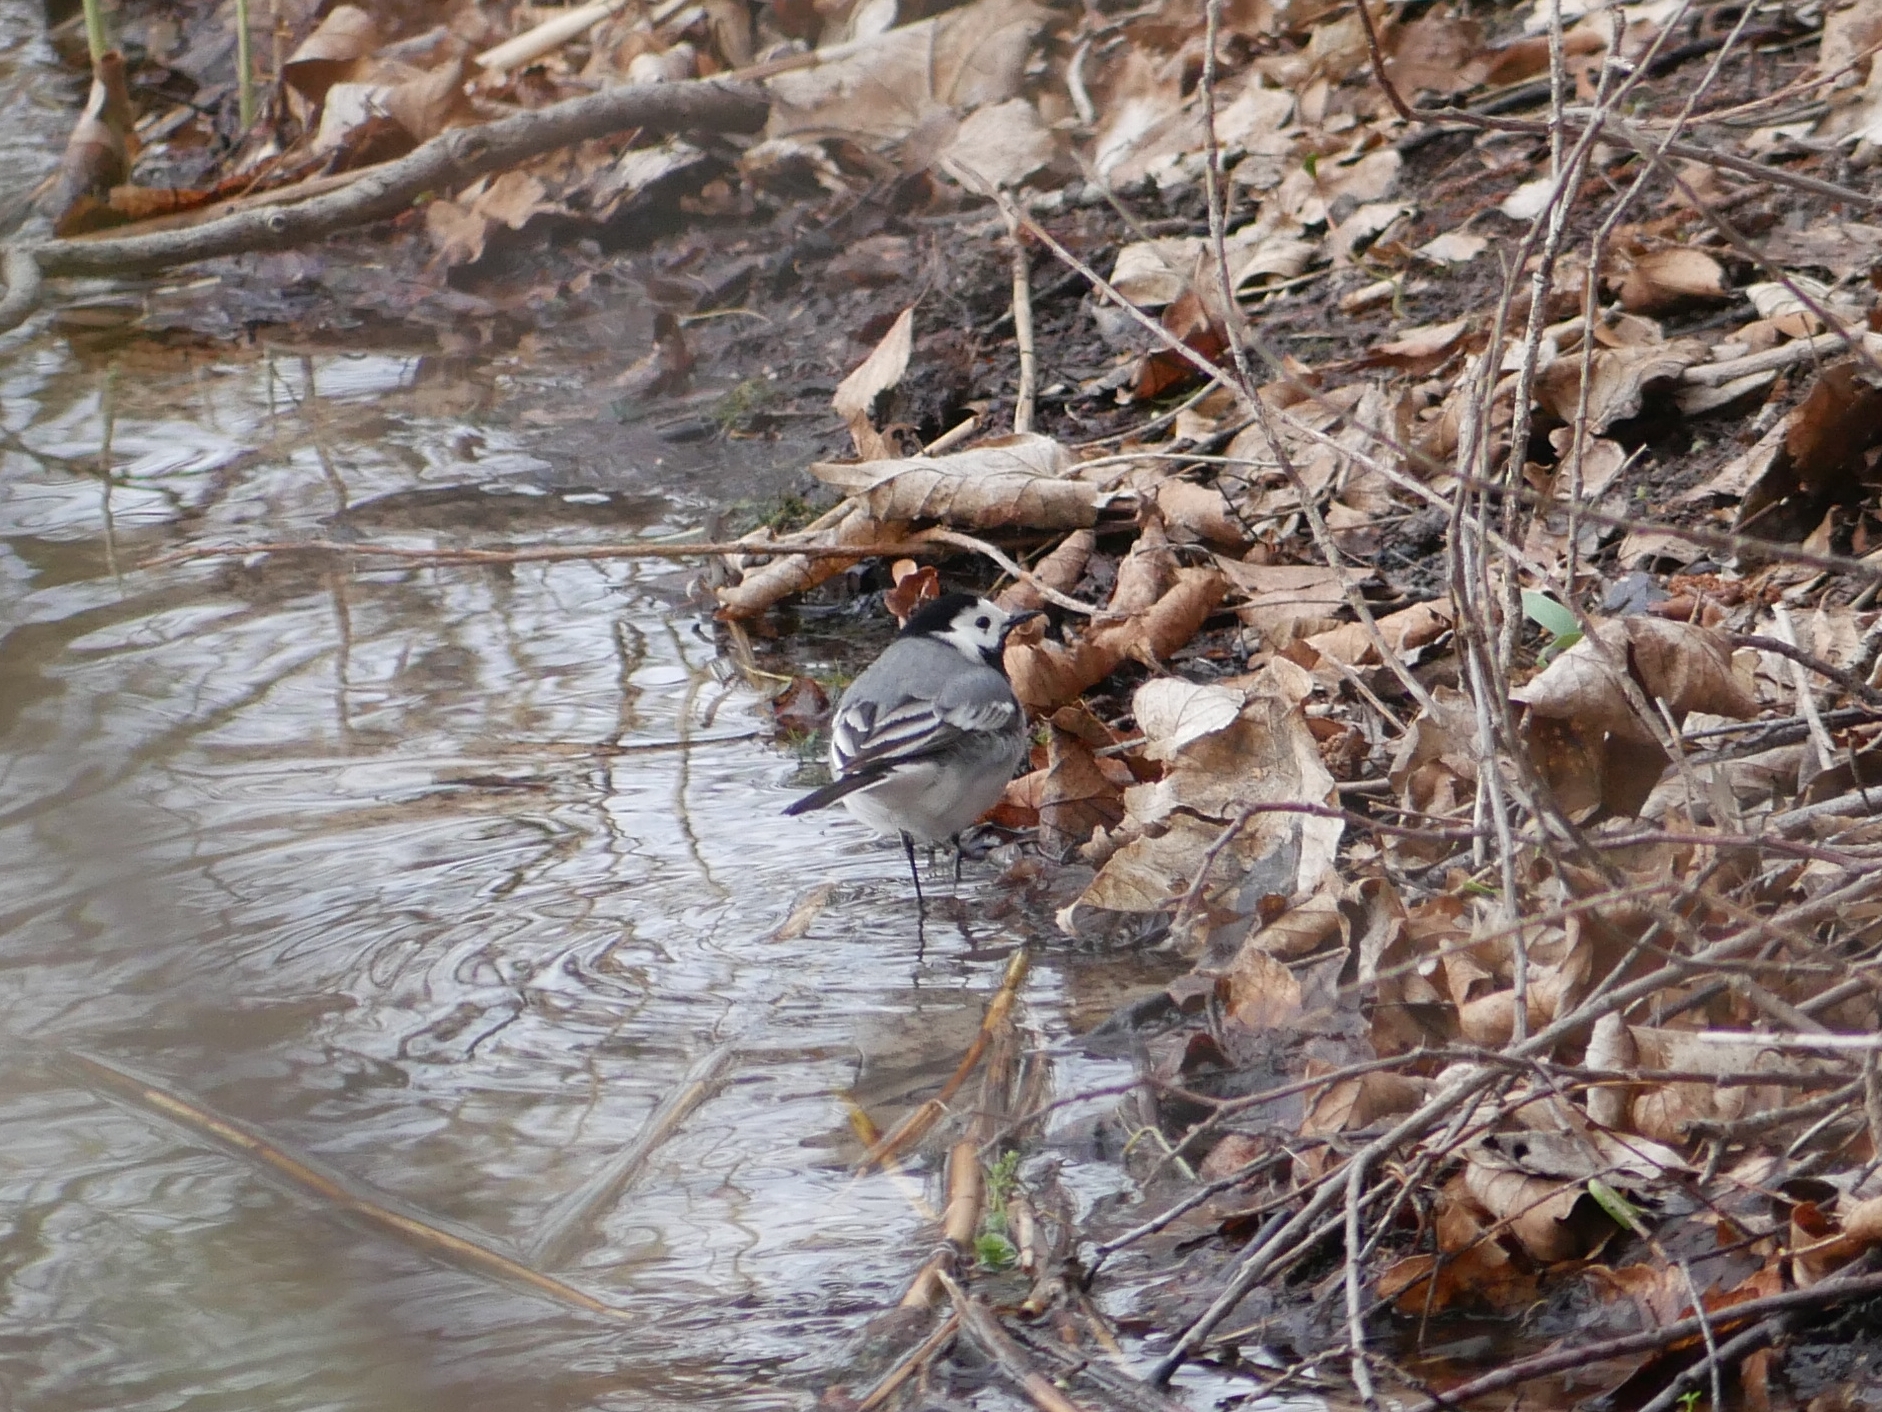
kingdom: Animalia
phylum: Chordata
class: Aves
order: Passeriformes
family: Motacillidae
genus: Motacilla
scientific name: Motacilla alba
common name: White wagtail
